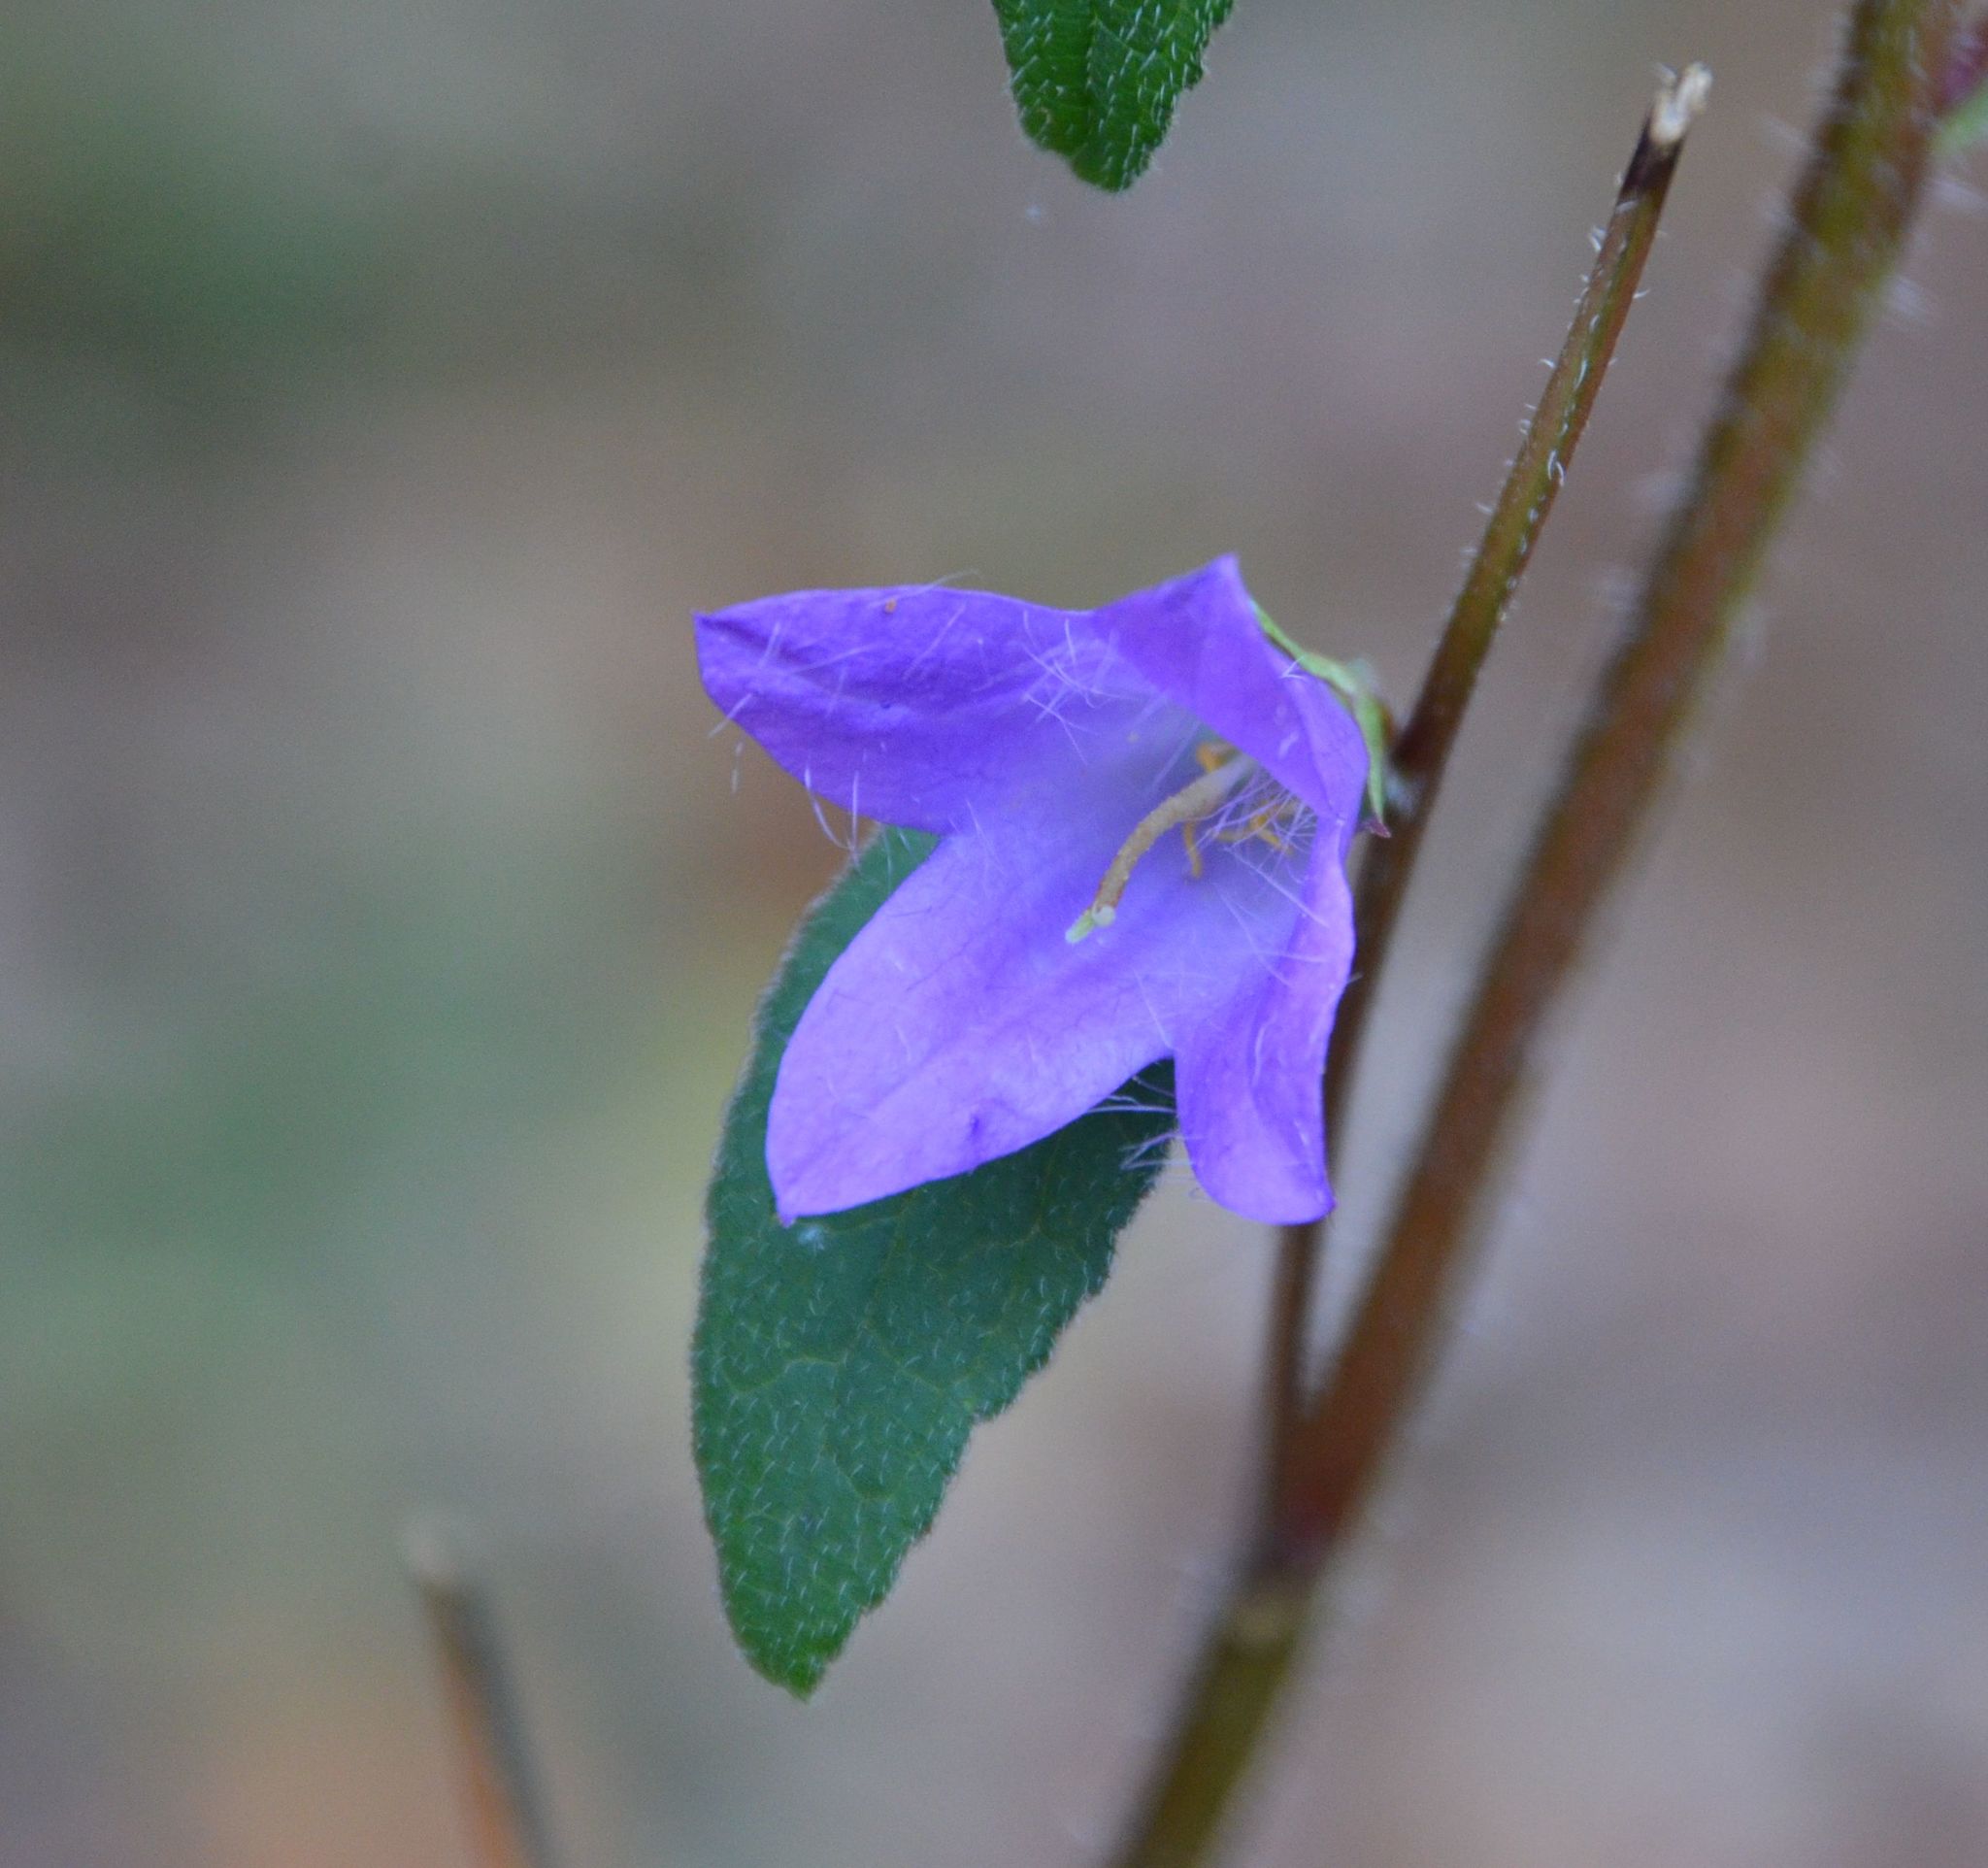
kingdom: Plantae
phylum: Tracheophyta
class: Magnoliopsida
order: Asterales
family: Campanulaceae
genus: Campanula
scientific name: Campanula trachelium
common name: Nettle-leaved bellflower
